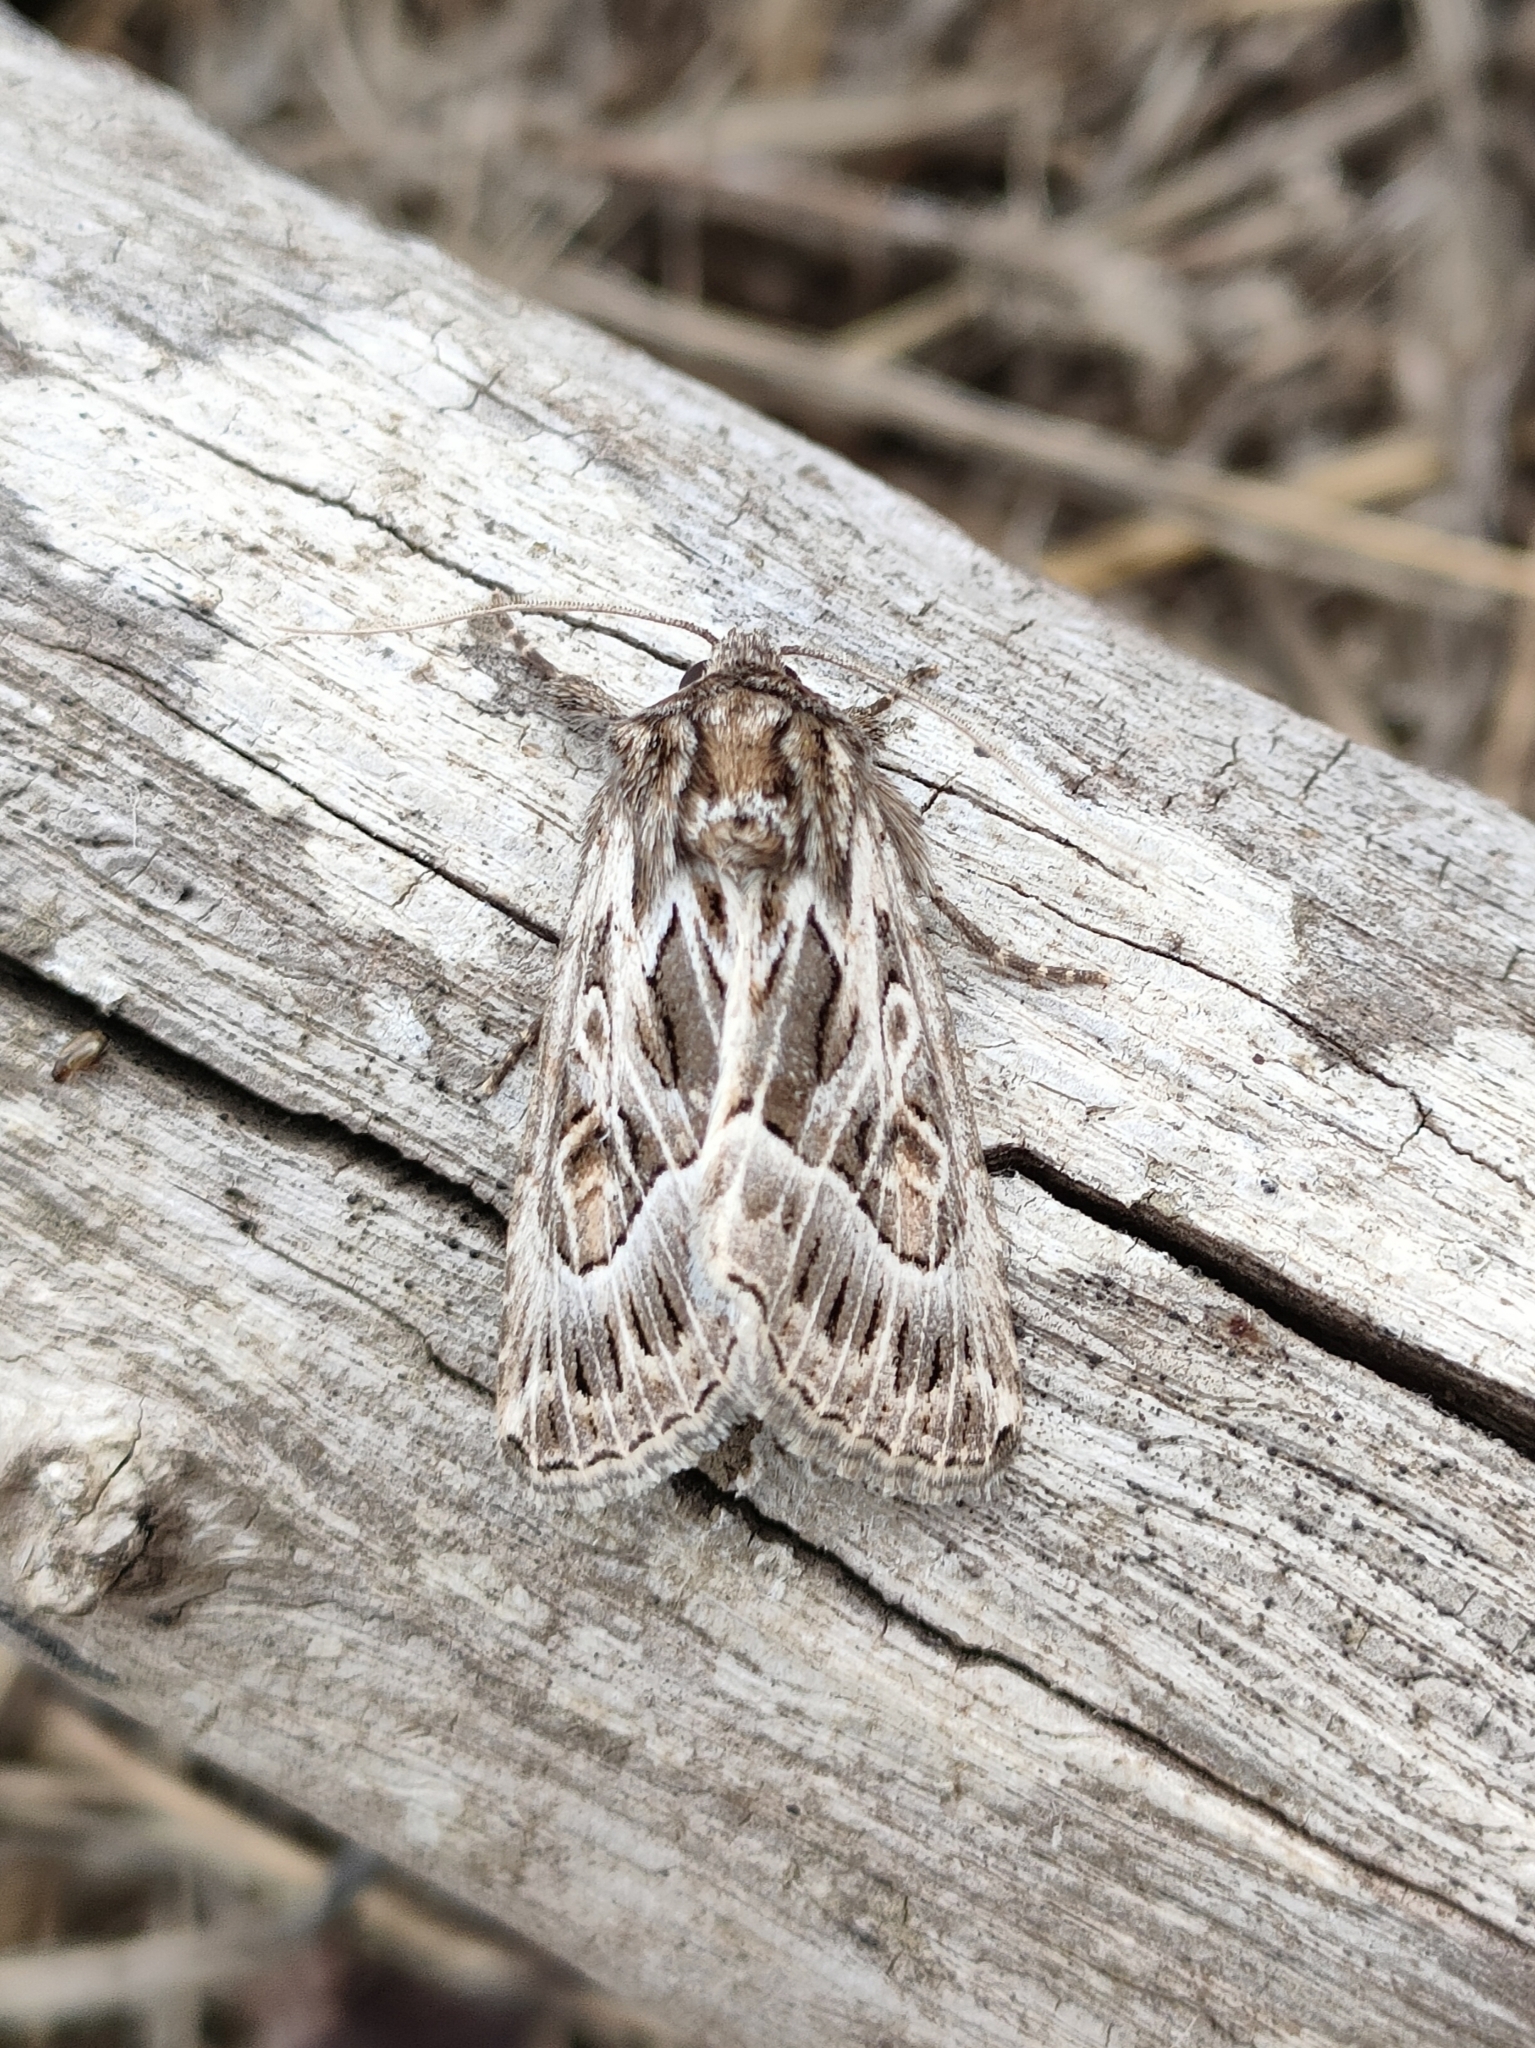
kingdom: Animalia
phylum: Arthropoda
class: Insecta
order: Lepidoptera
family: Noctuidae
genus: Thalpophila
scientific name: Thalpophila vitalba
